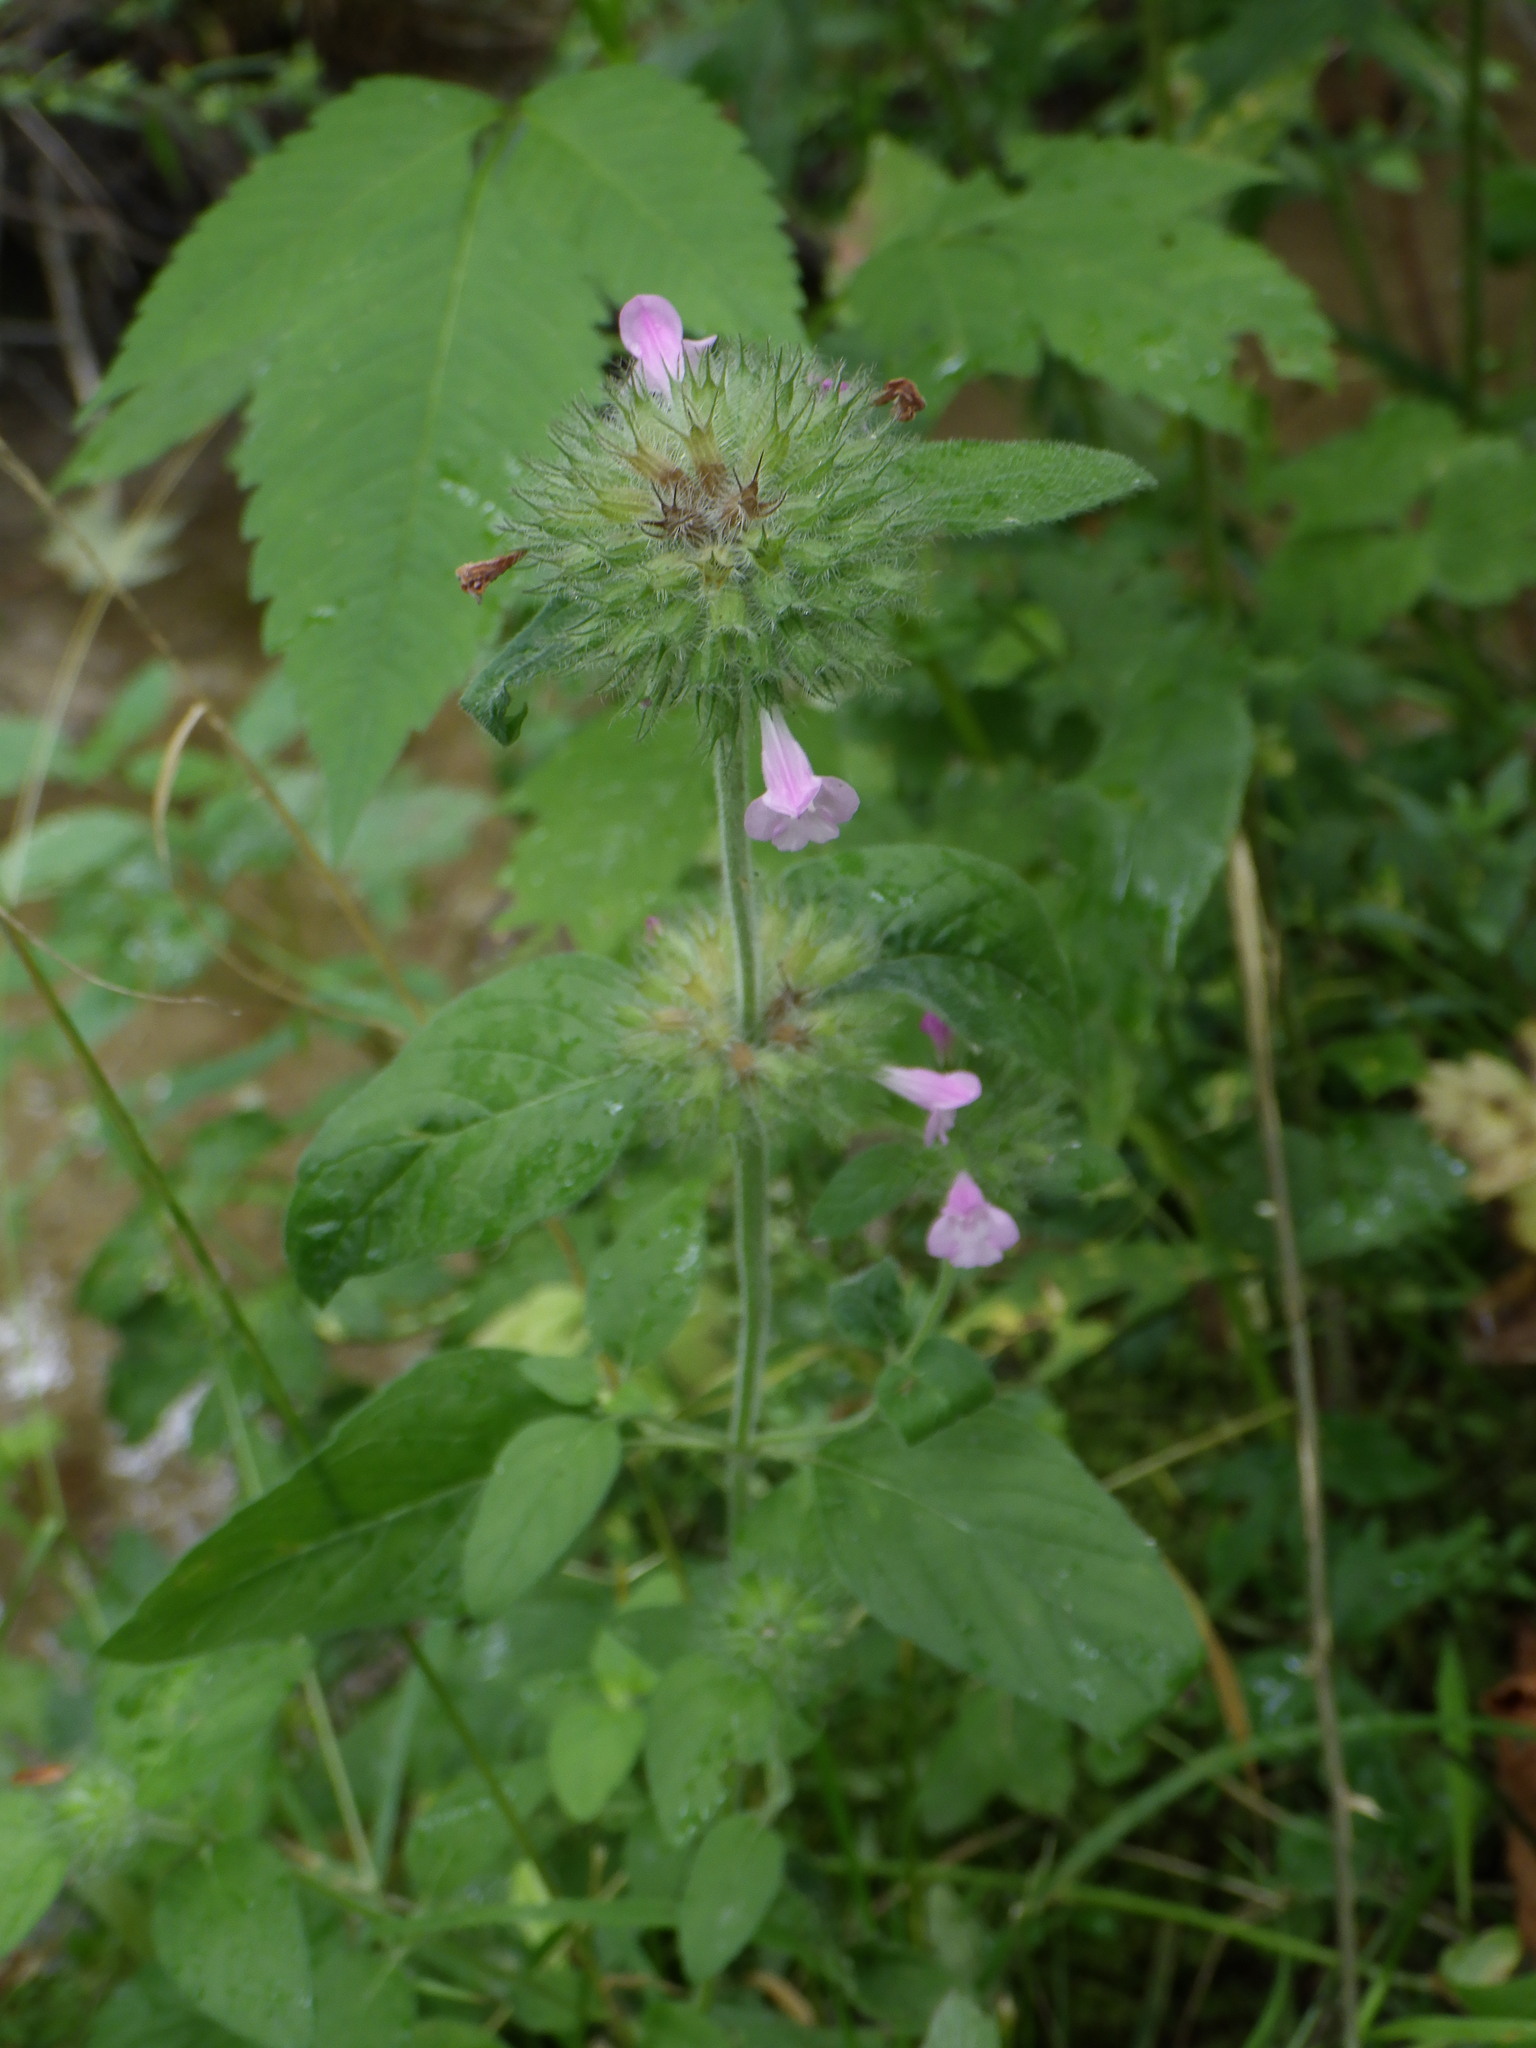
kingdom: Plantae
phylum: Tracheophyta
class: Magnoliopsida
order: Lamiales
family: Lamiaceae
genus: Clinopodium
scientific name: Clinopodium vulgare
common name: Wild basil
